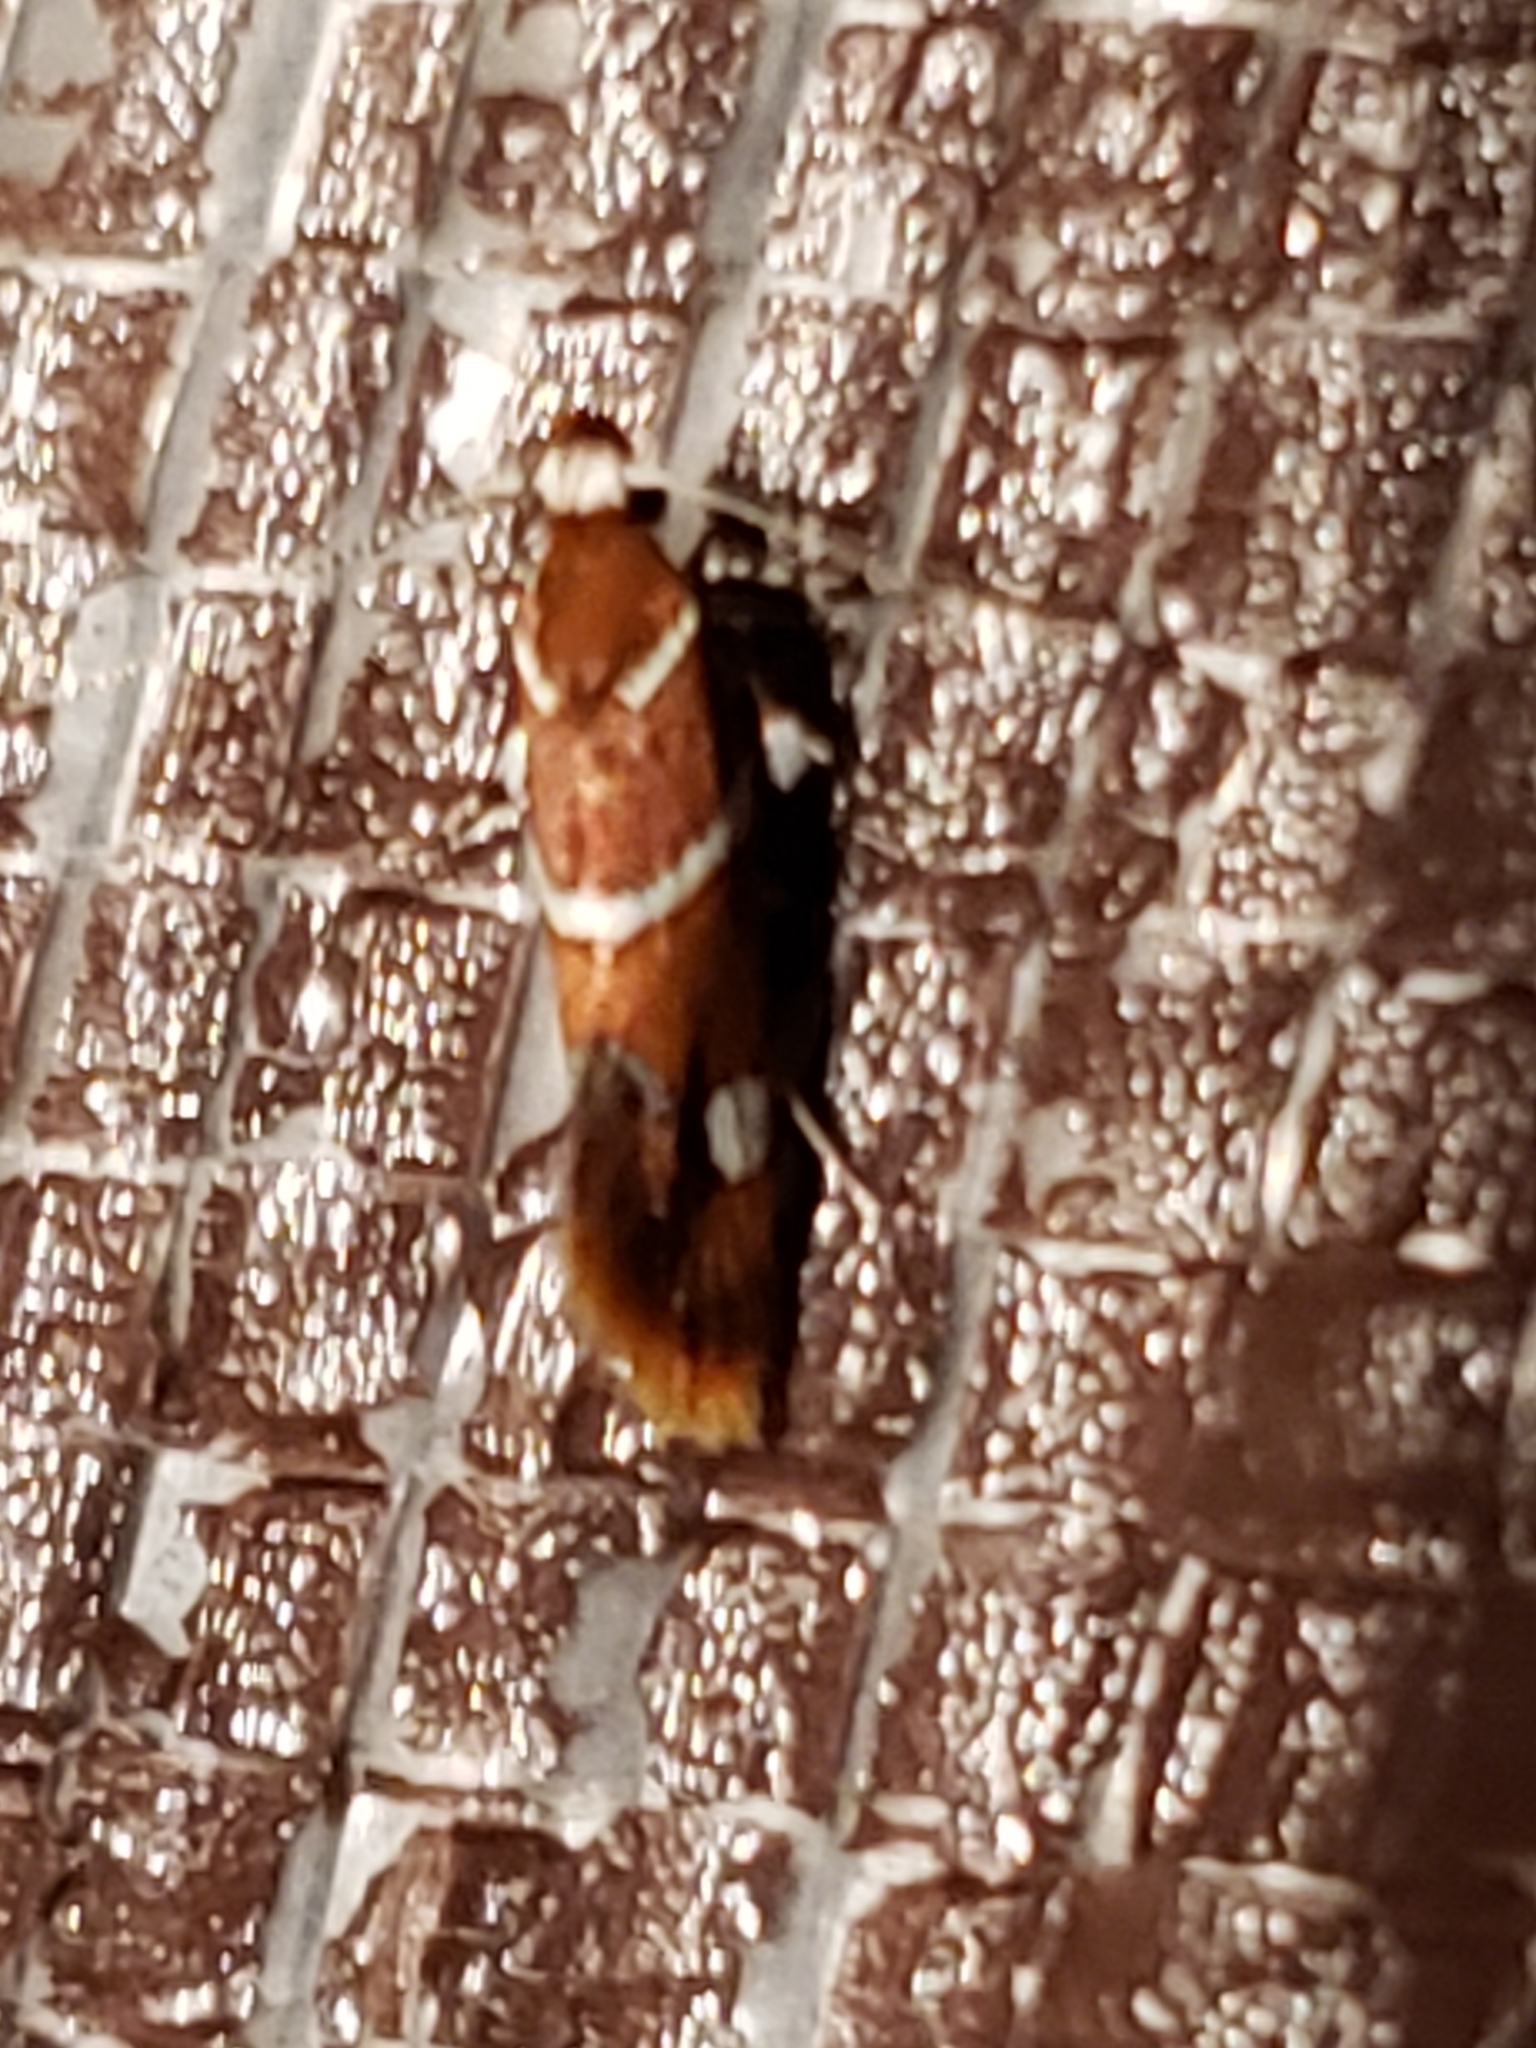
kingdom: Animalia
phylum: Arthropoda
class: Insecta
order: Lepidoptera
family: Oecophoridae
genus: Promalactis
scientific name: Promalactis suzukiella
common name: Moth
